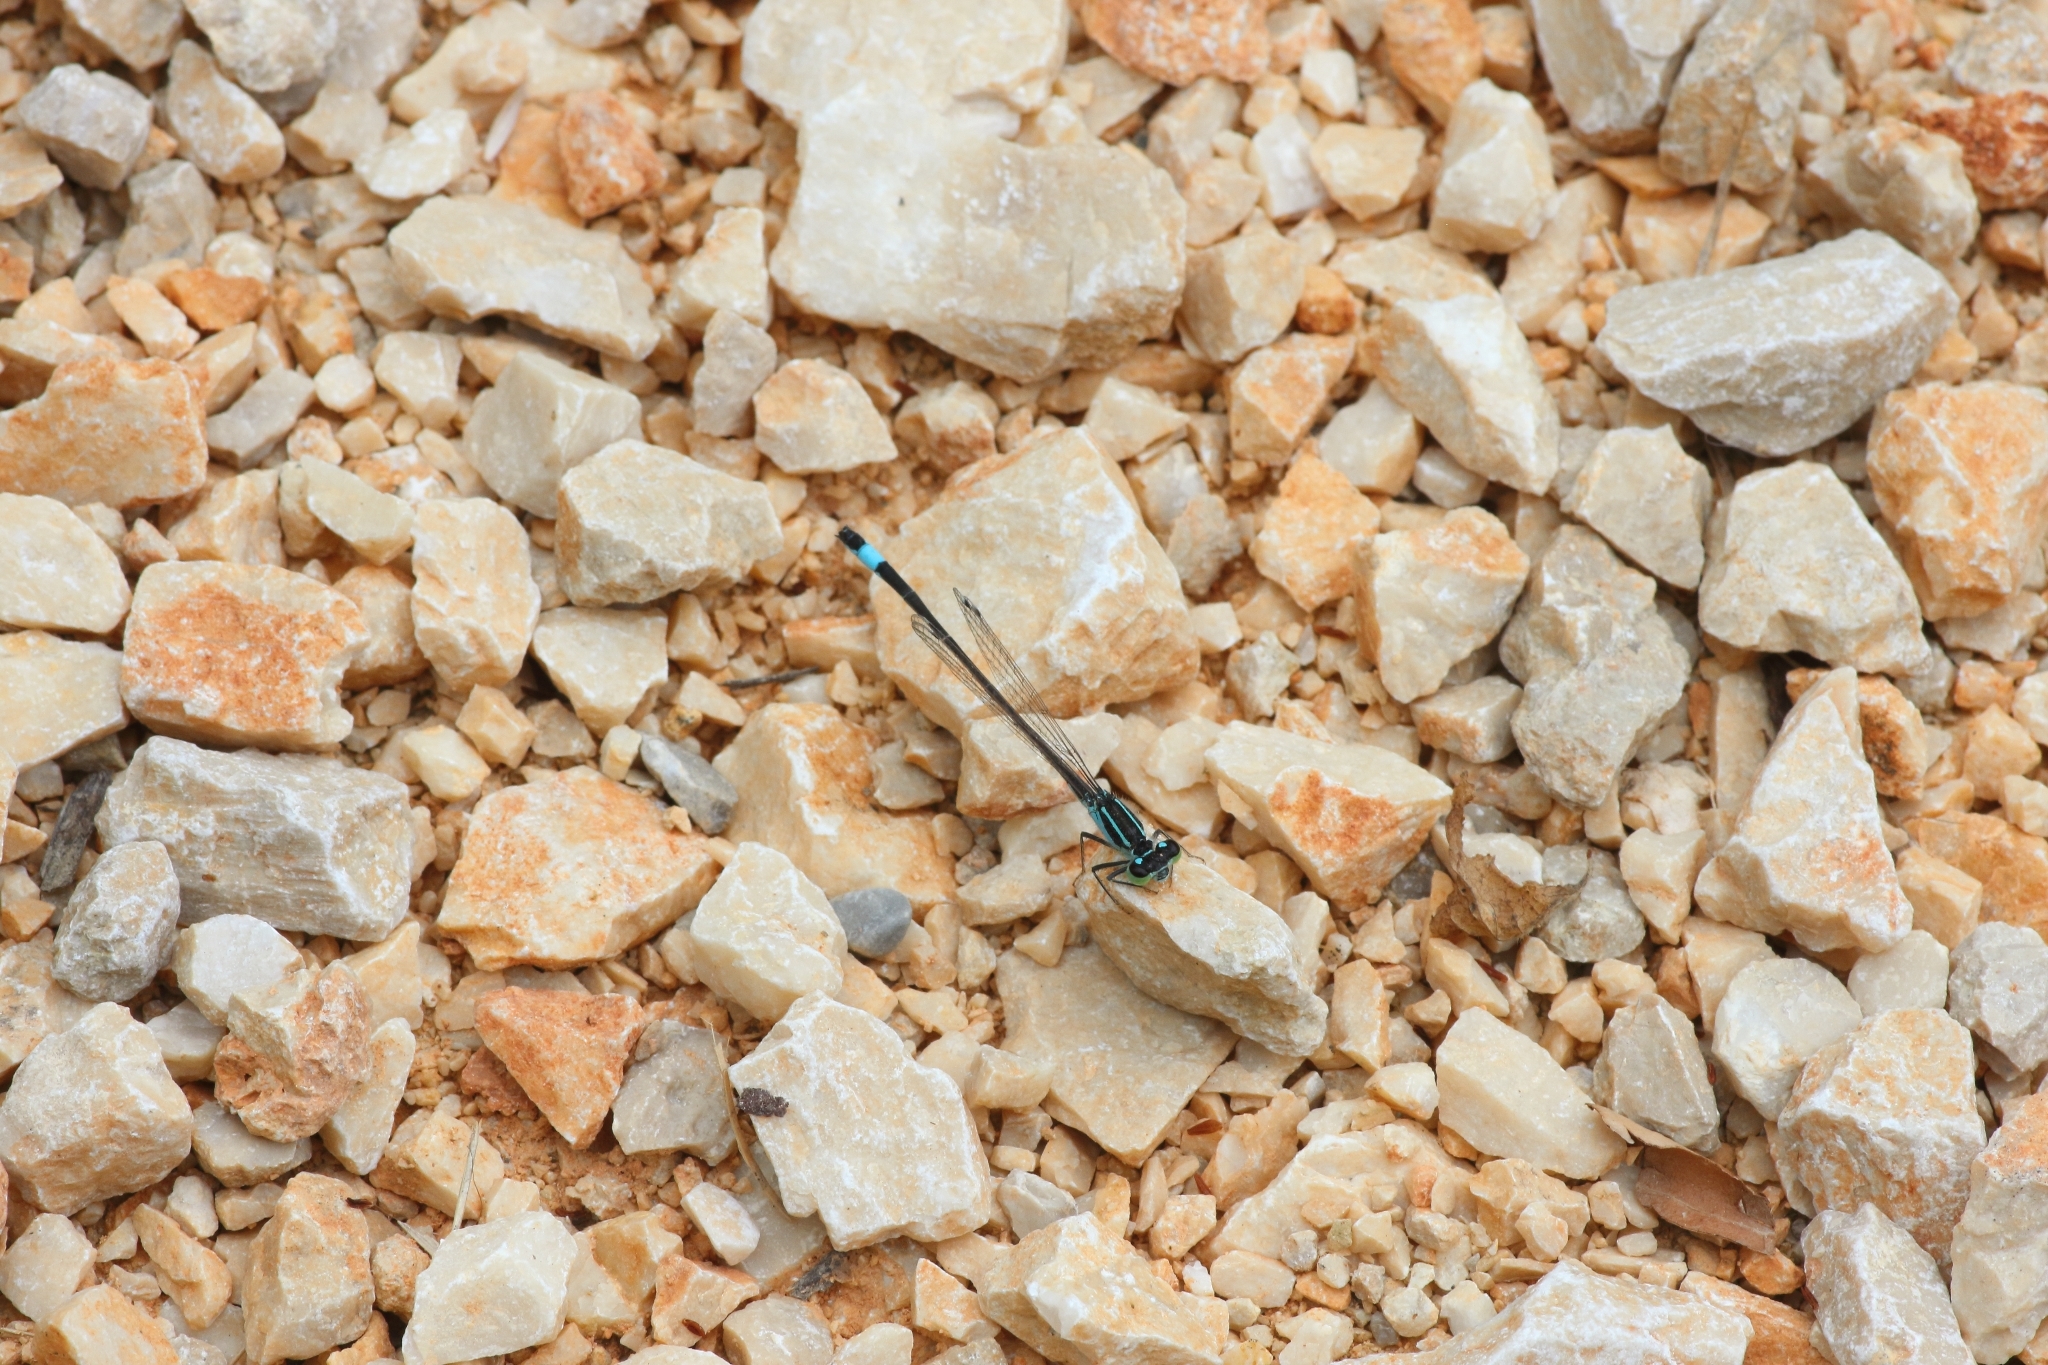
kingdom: Animalia
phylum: Arthropoda
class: Insecta
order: Odonata
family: Coenagrionidae
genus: Ischnura
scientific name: Ischnura elegans
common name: Blue-tailed damselfly
